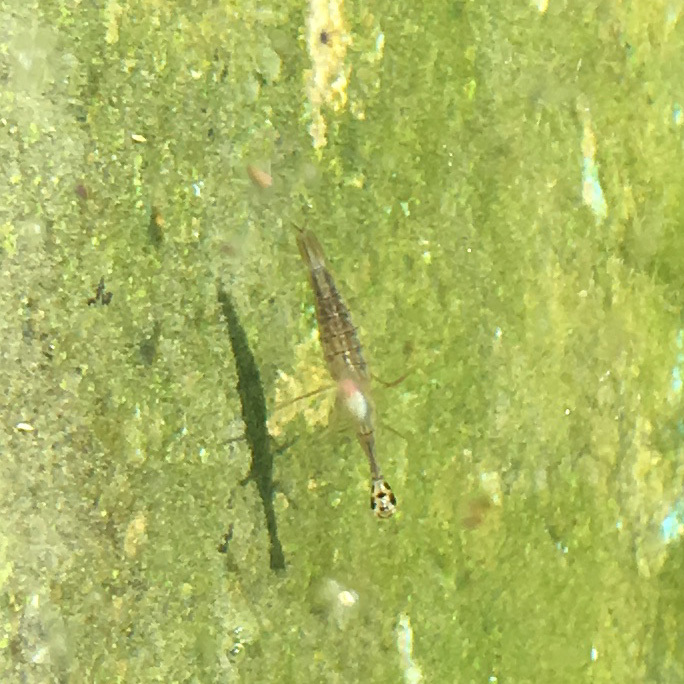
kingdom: Animalia
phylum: Arthropoda
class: Insecta
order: Coleoptera
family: Dytiscidae
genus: Acilius
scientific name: Acilius sulcatus
